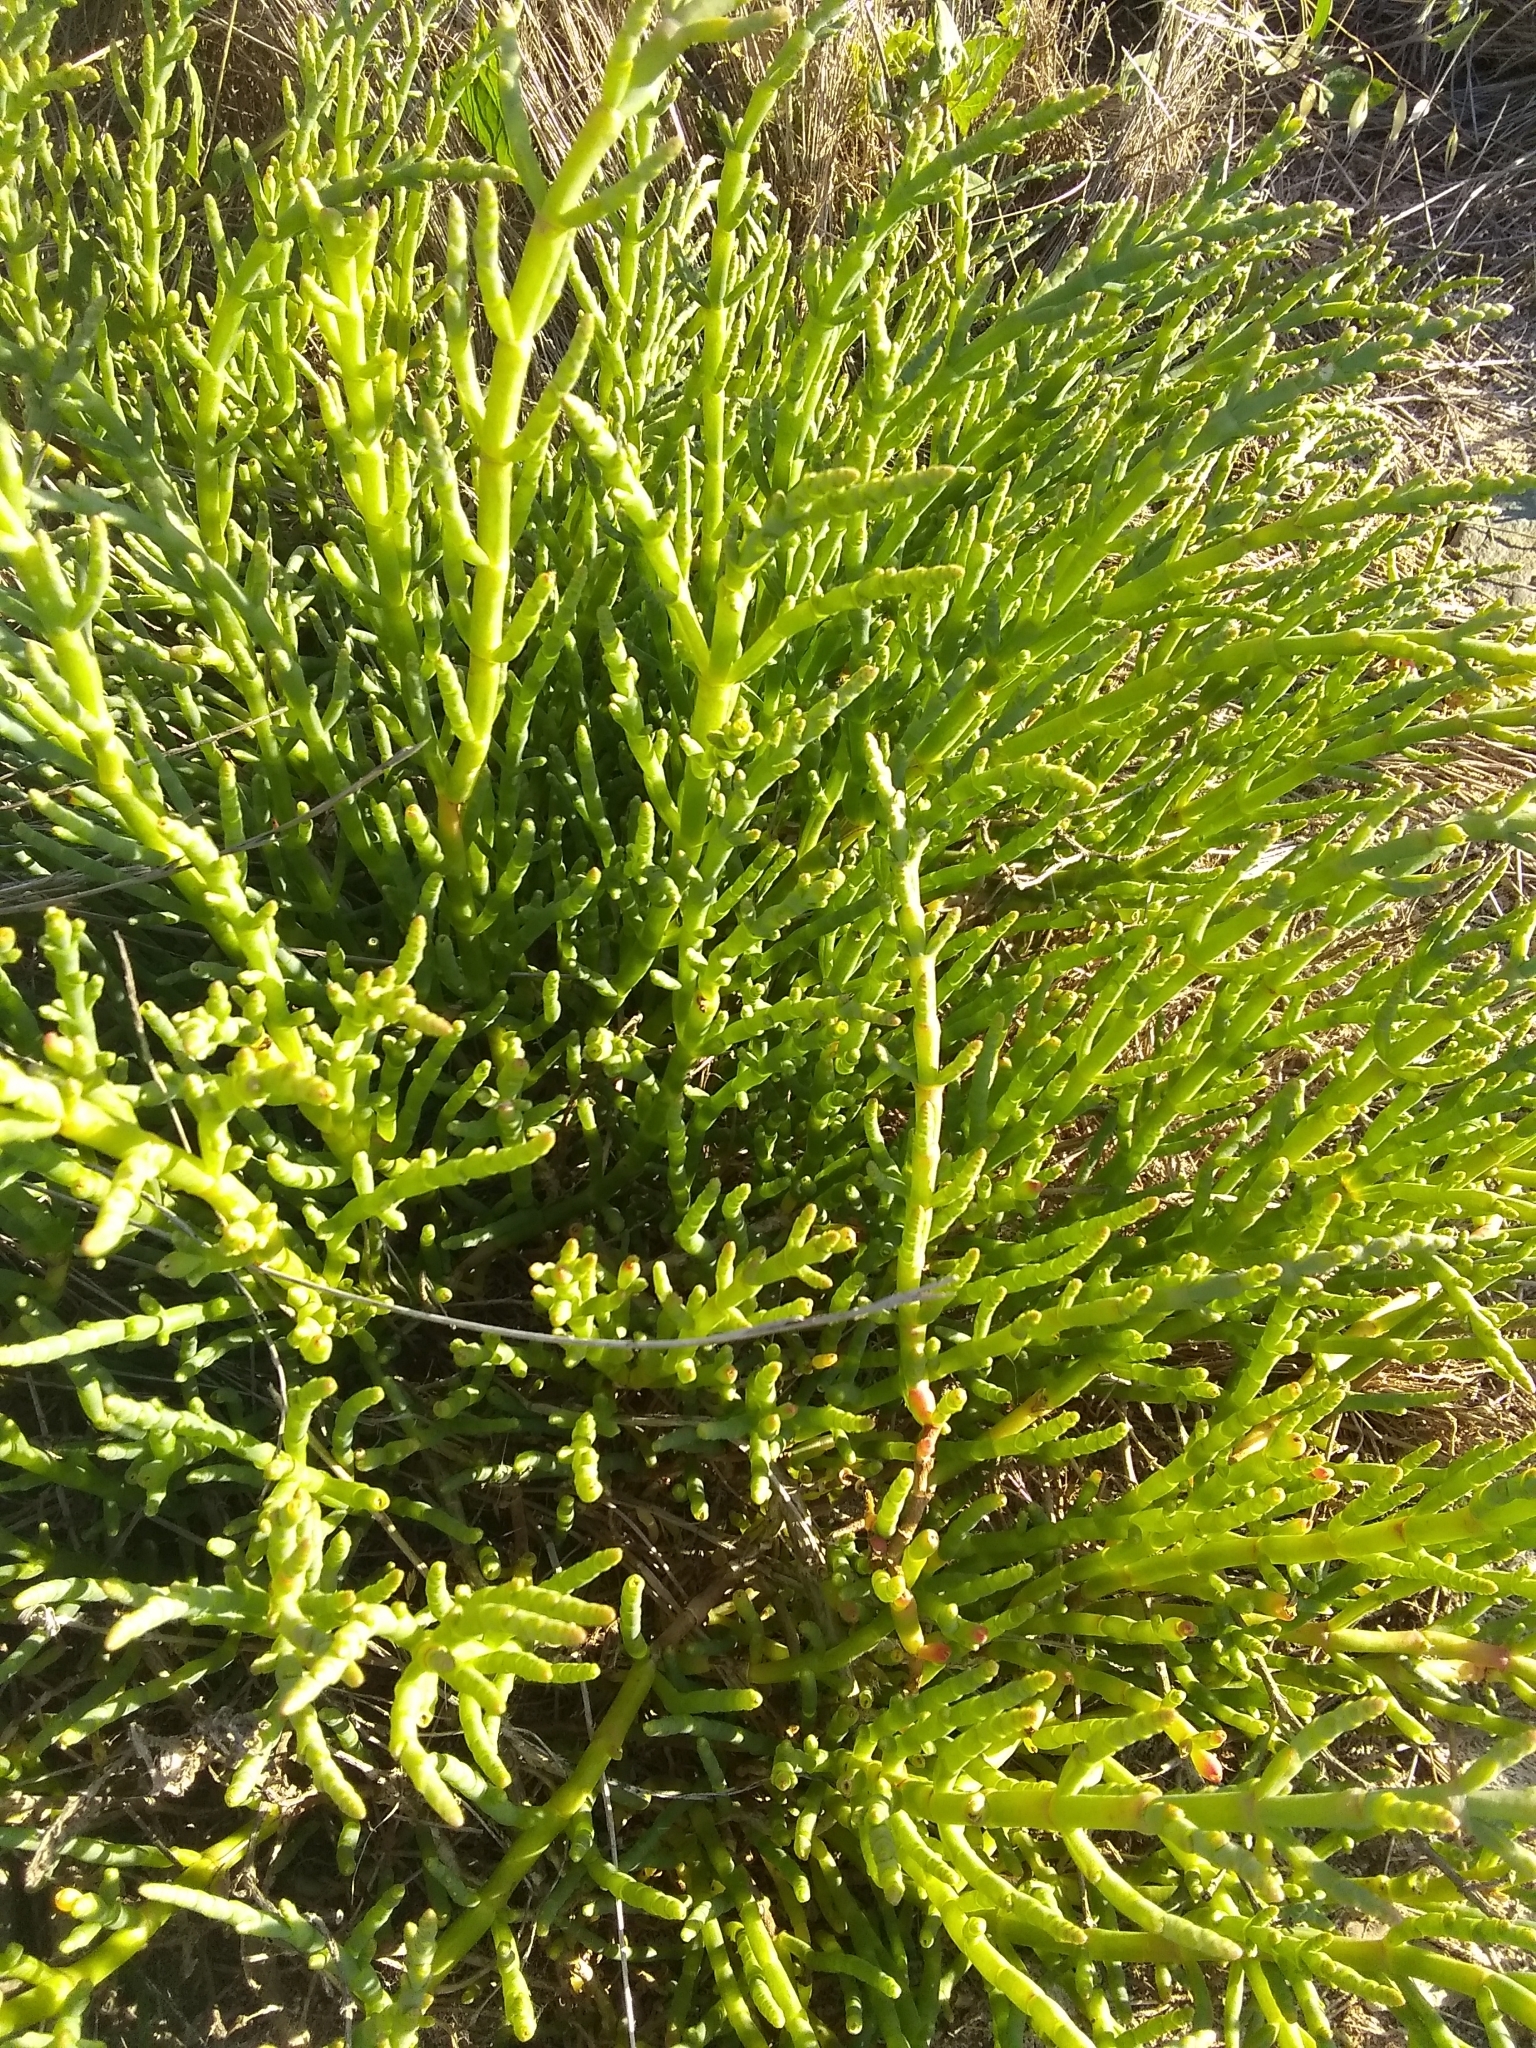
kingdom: Plantae
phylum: Tracheophyta
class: Magnoliopsida
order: Caryophyllales
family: Amaranthaceae
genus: Salicornia
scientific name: Salicornia pacifica
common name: Pacific glasswort
